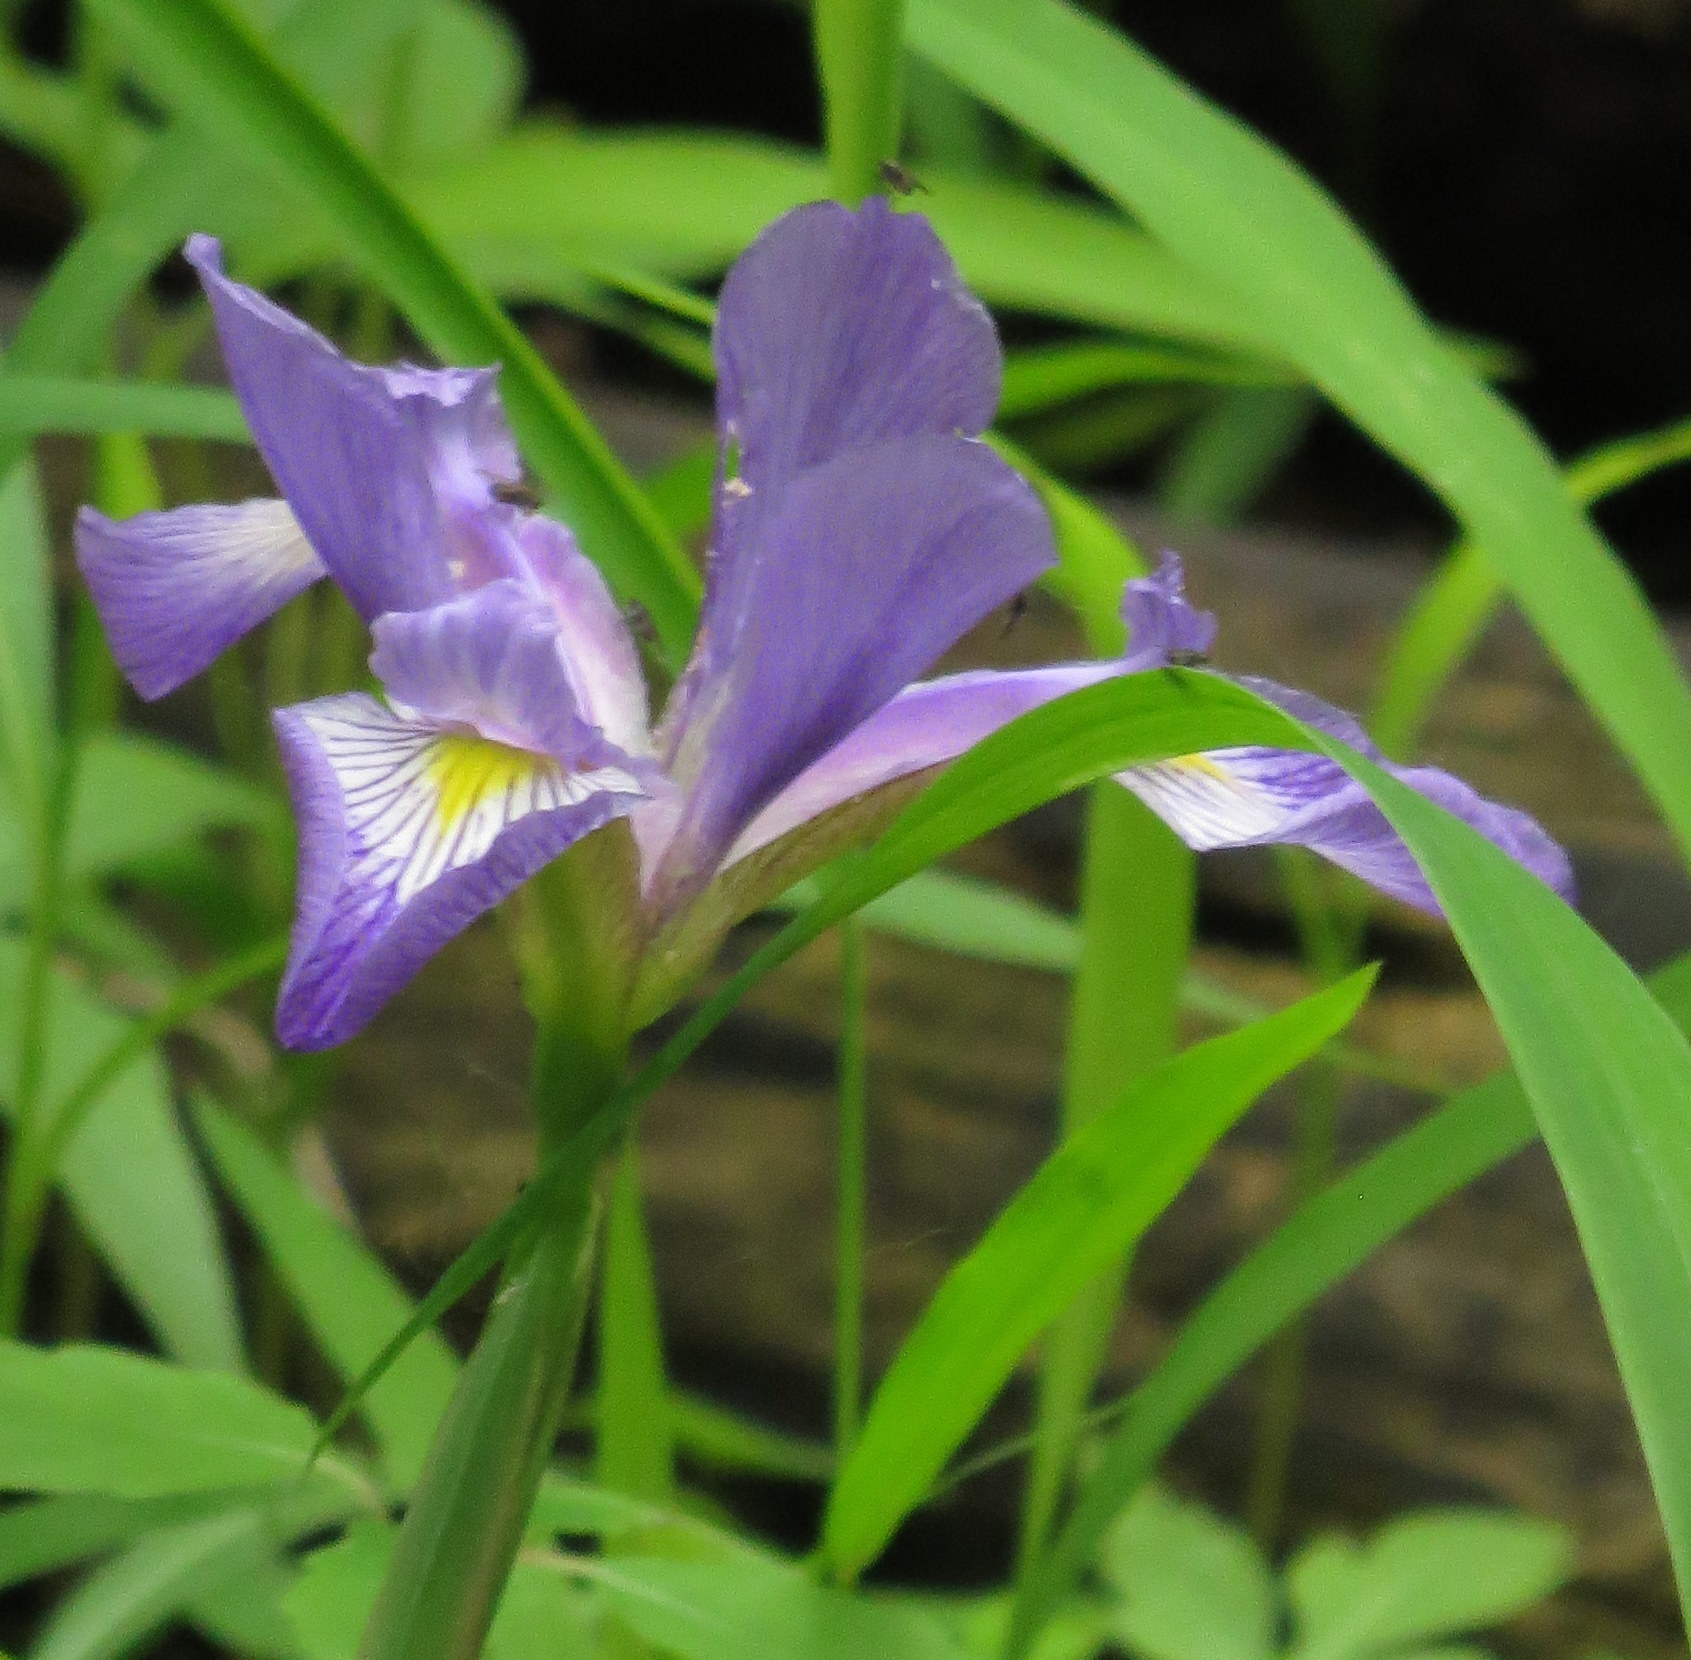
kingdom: Plantae
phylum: Tracheophyta
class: Liliopsida
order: Asparagales
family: Iridaceae
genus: Iris
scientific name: Iris virginica
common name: Southern blue flag
